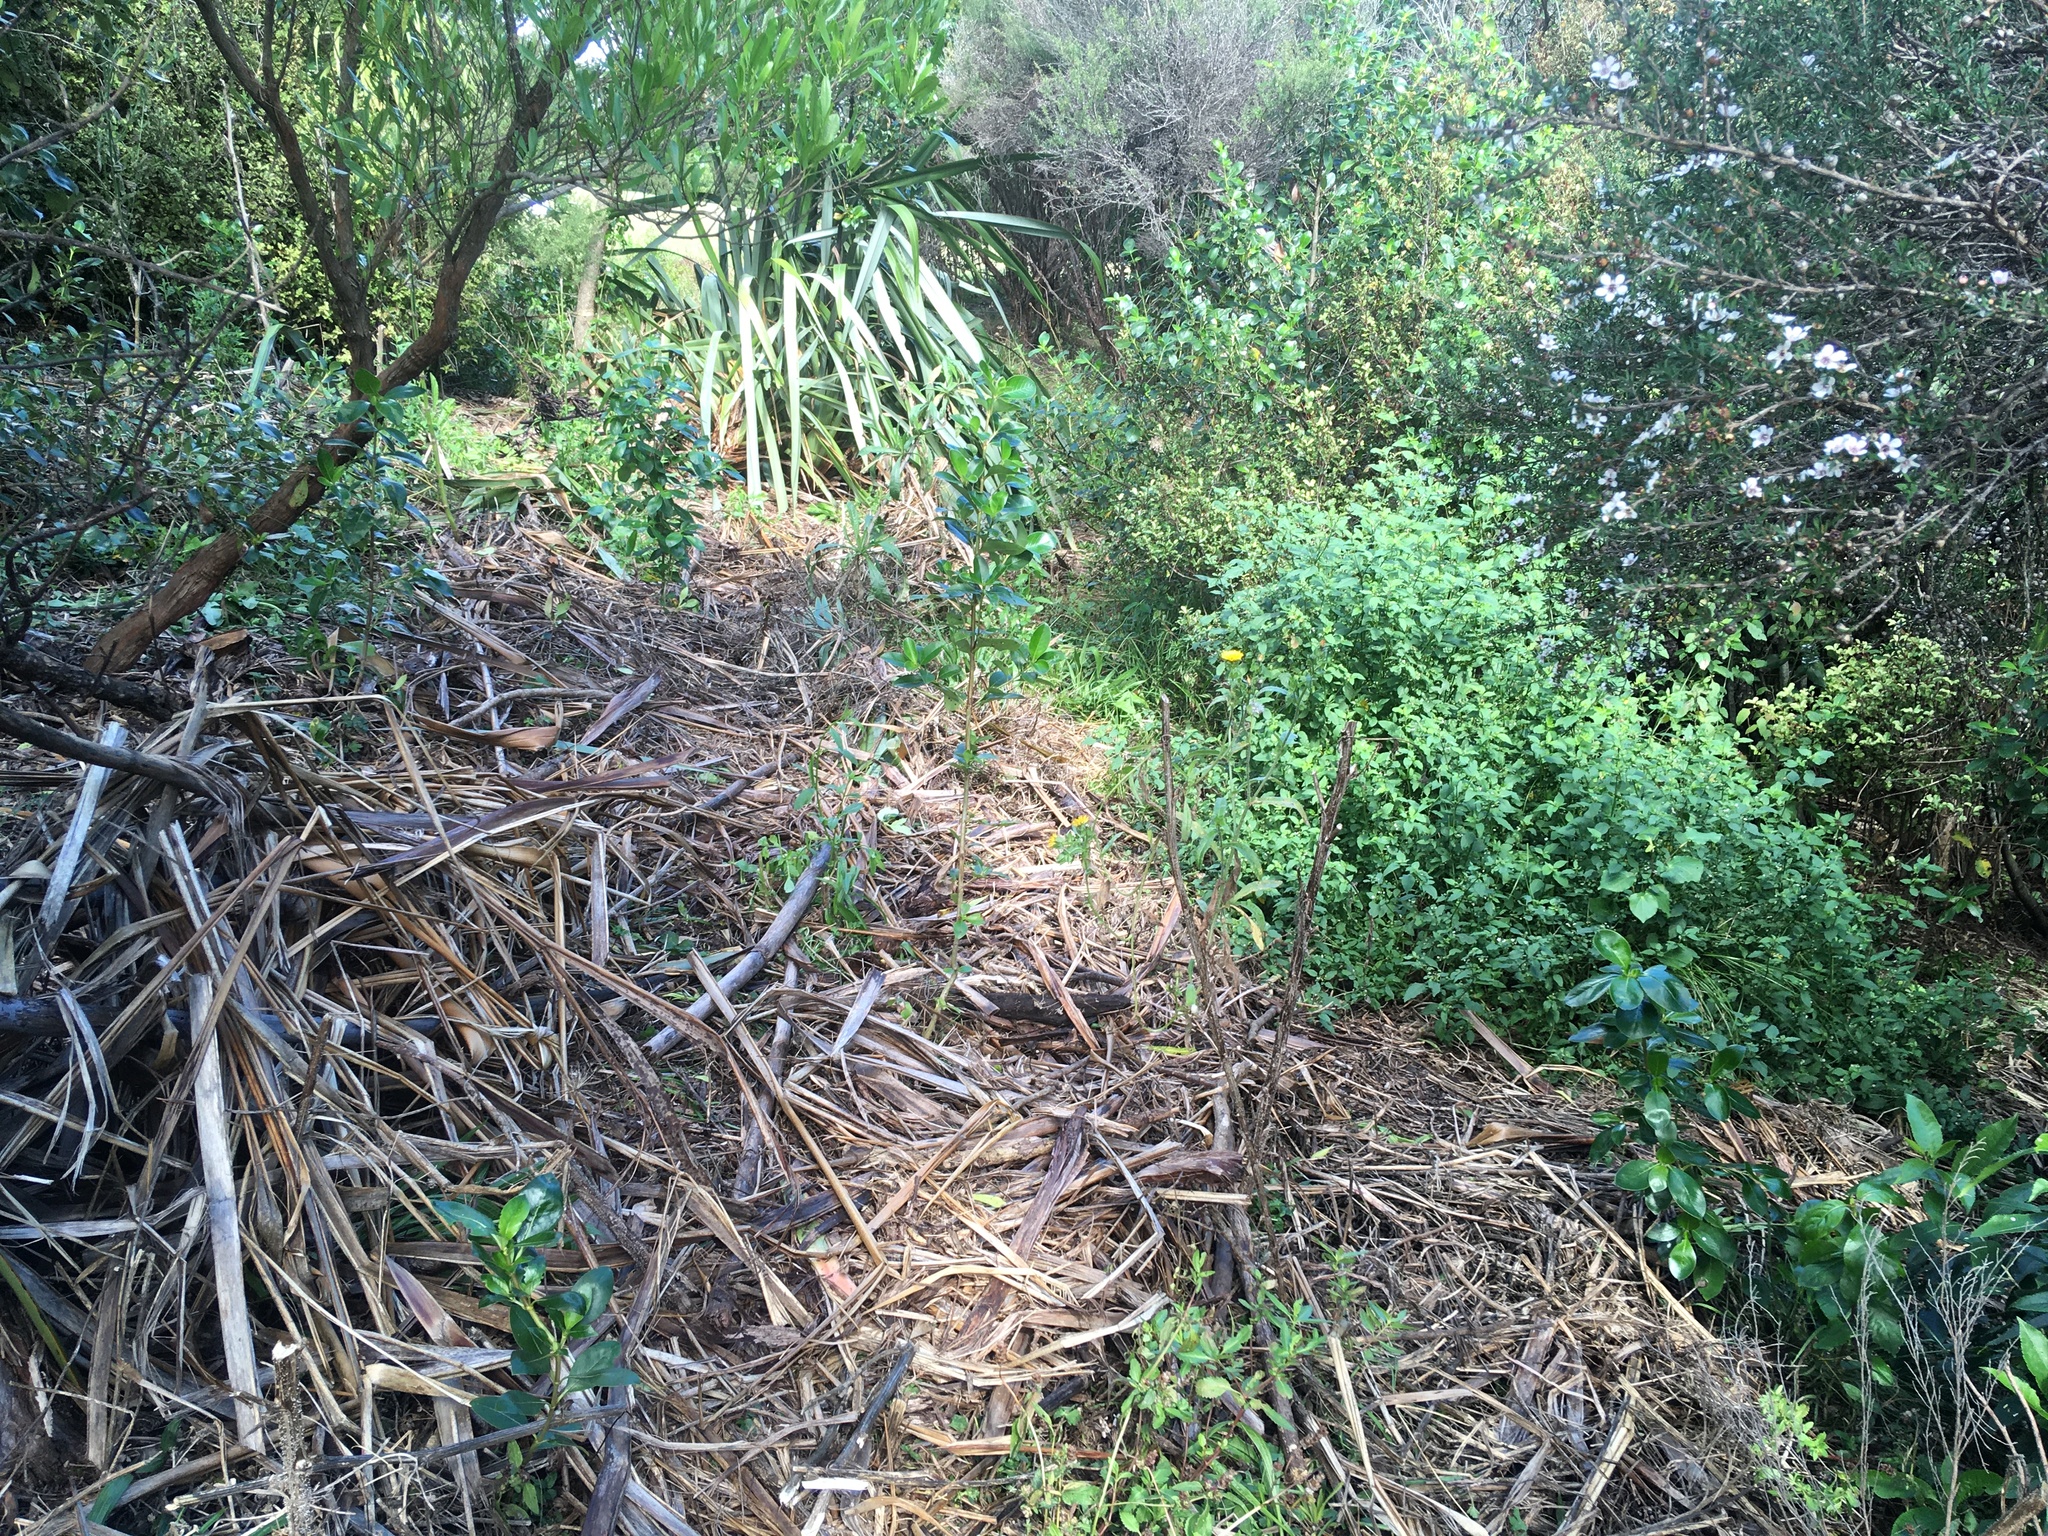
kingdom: Plantae
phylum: Tracheophyta
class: Magnoliopsida
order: Gentianales
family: Rubiaceae
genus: Coprosma
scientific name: Coprosma robusta
